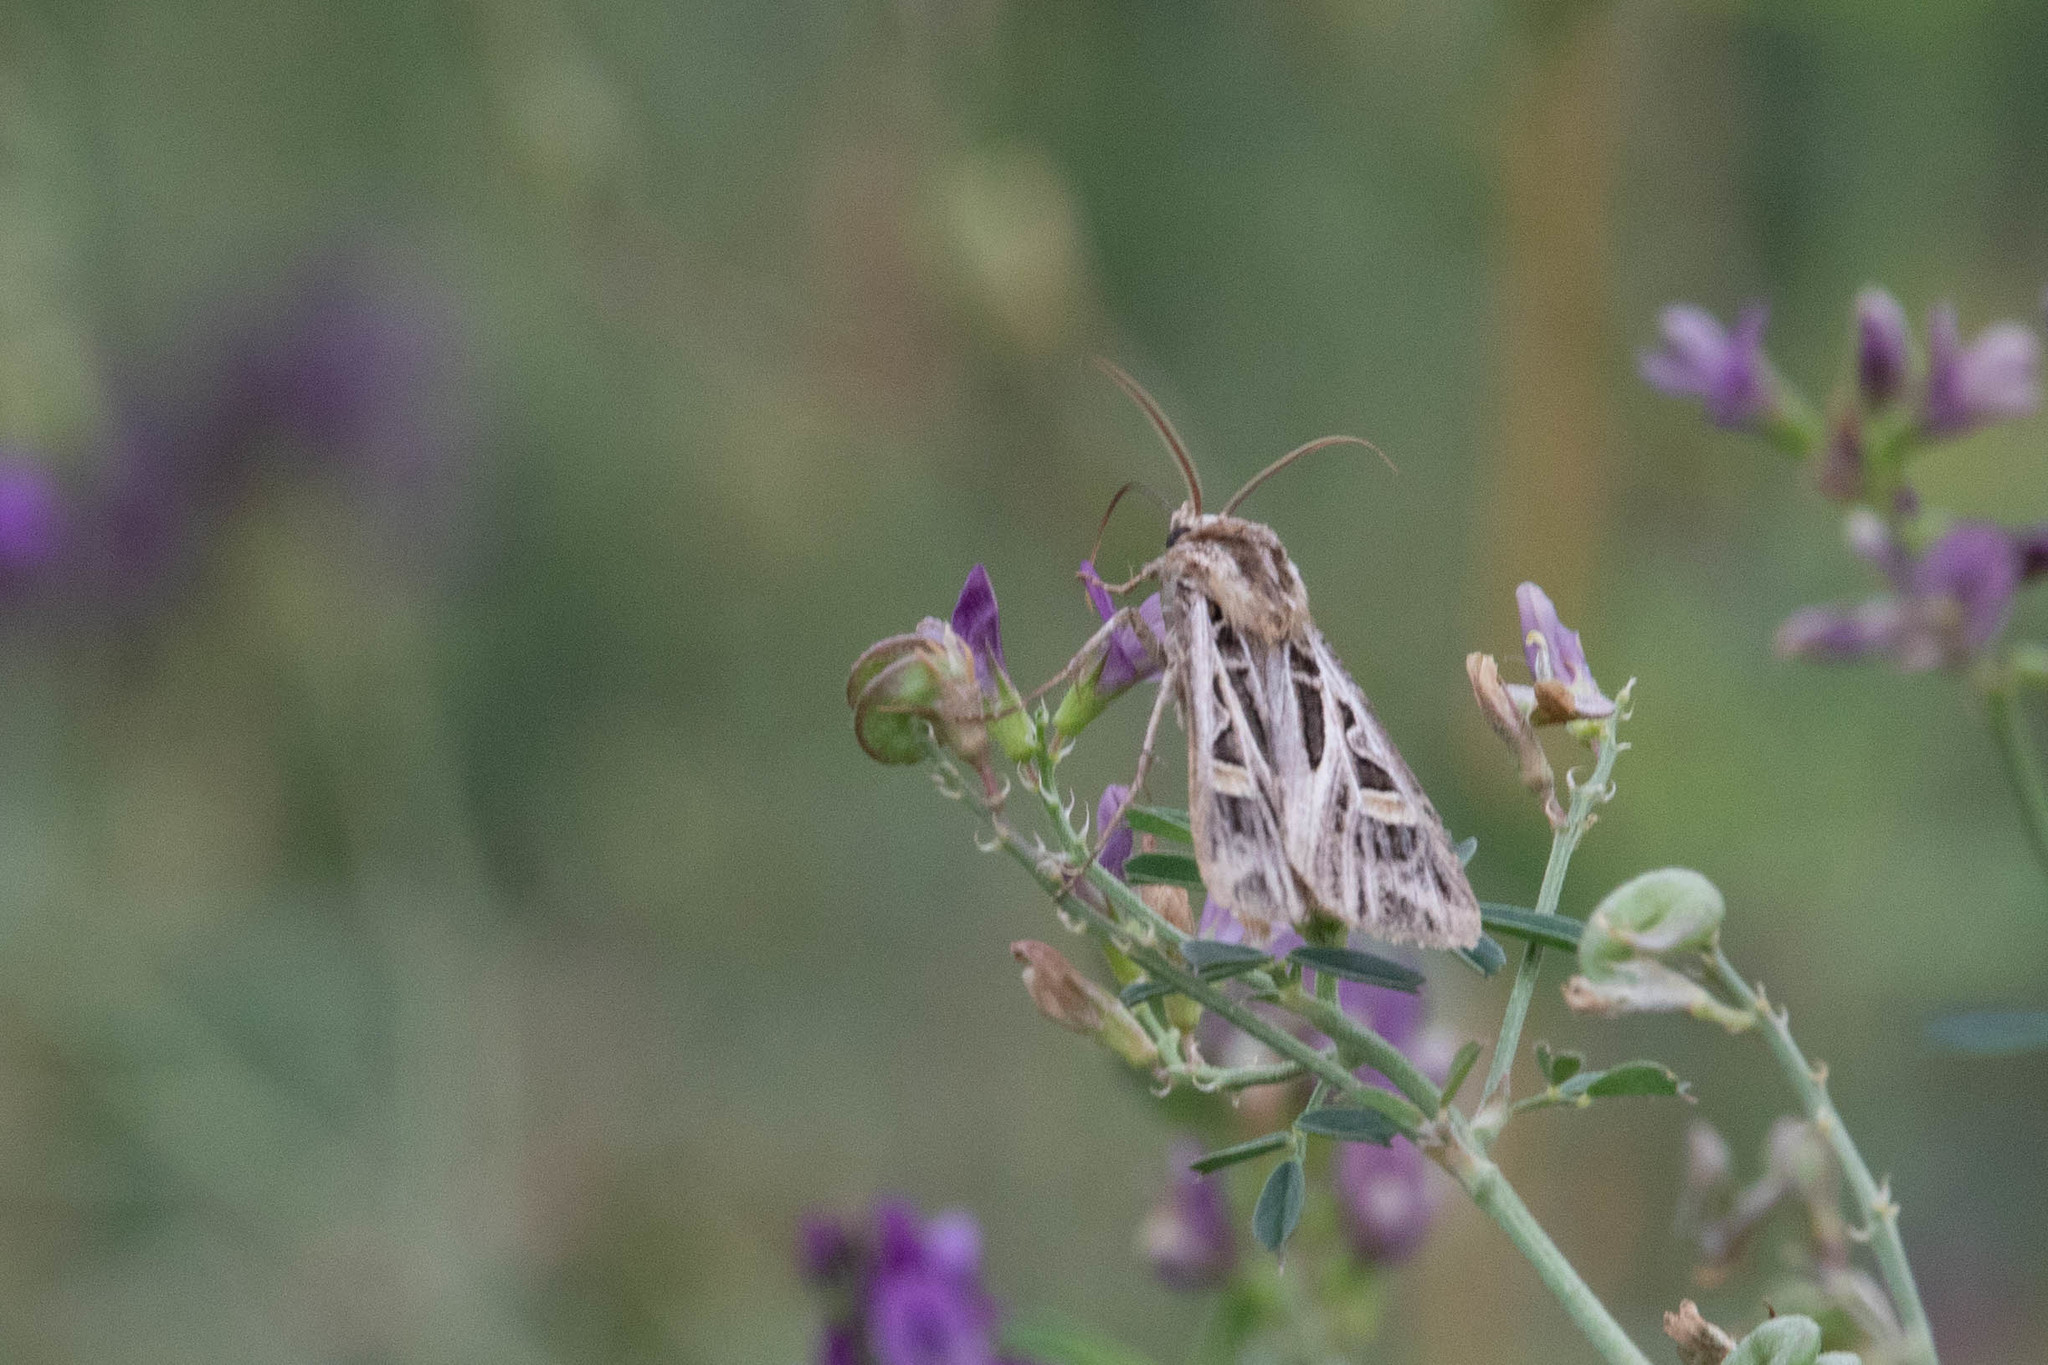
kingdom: Animalia
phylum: Arthropoda
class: Insecta
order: Lepidoptera
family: Noctuidae
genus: Feltia
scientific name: Feltia jaculifera
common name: Dingy cutworm moth
